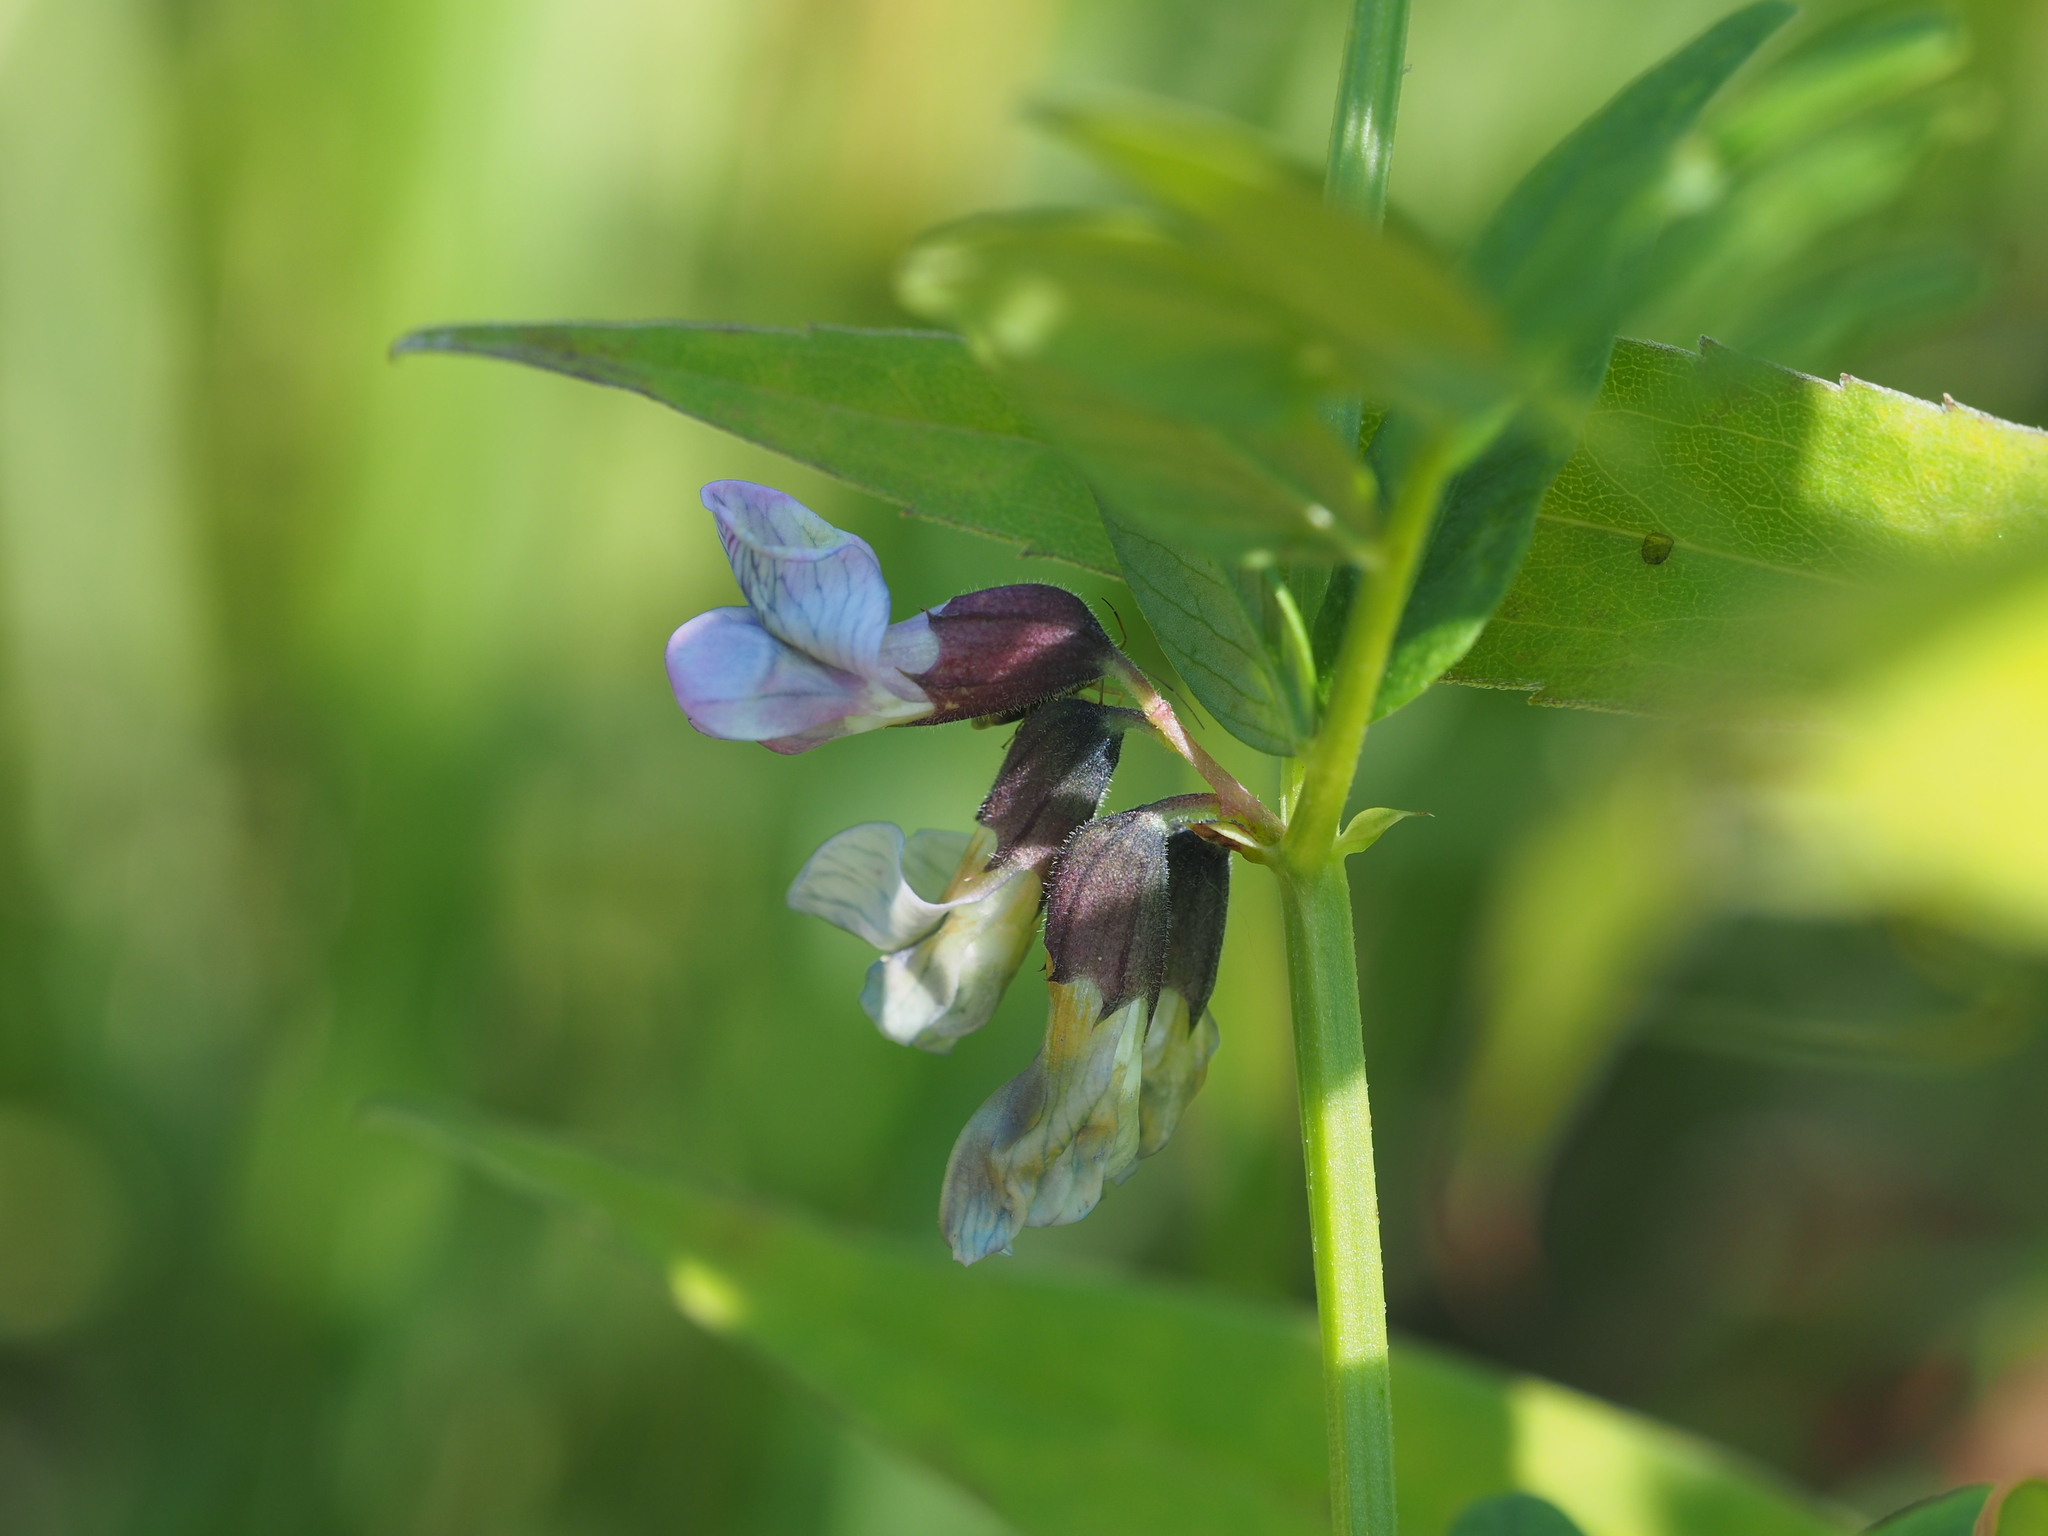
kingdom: Plantae
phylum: Tracheophyta
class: Magnoliopsida
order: Fabales
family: Fabaceae
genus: Vicia
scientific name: Vicia sepium
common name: Bush vetch
